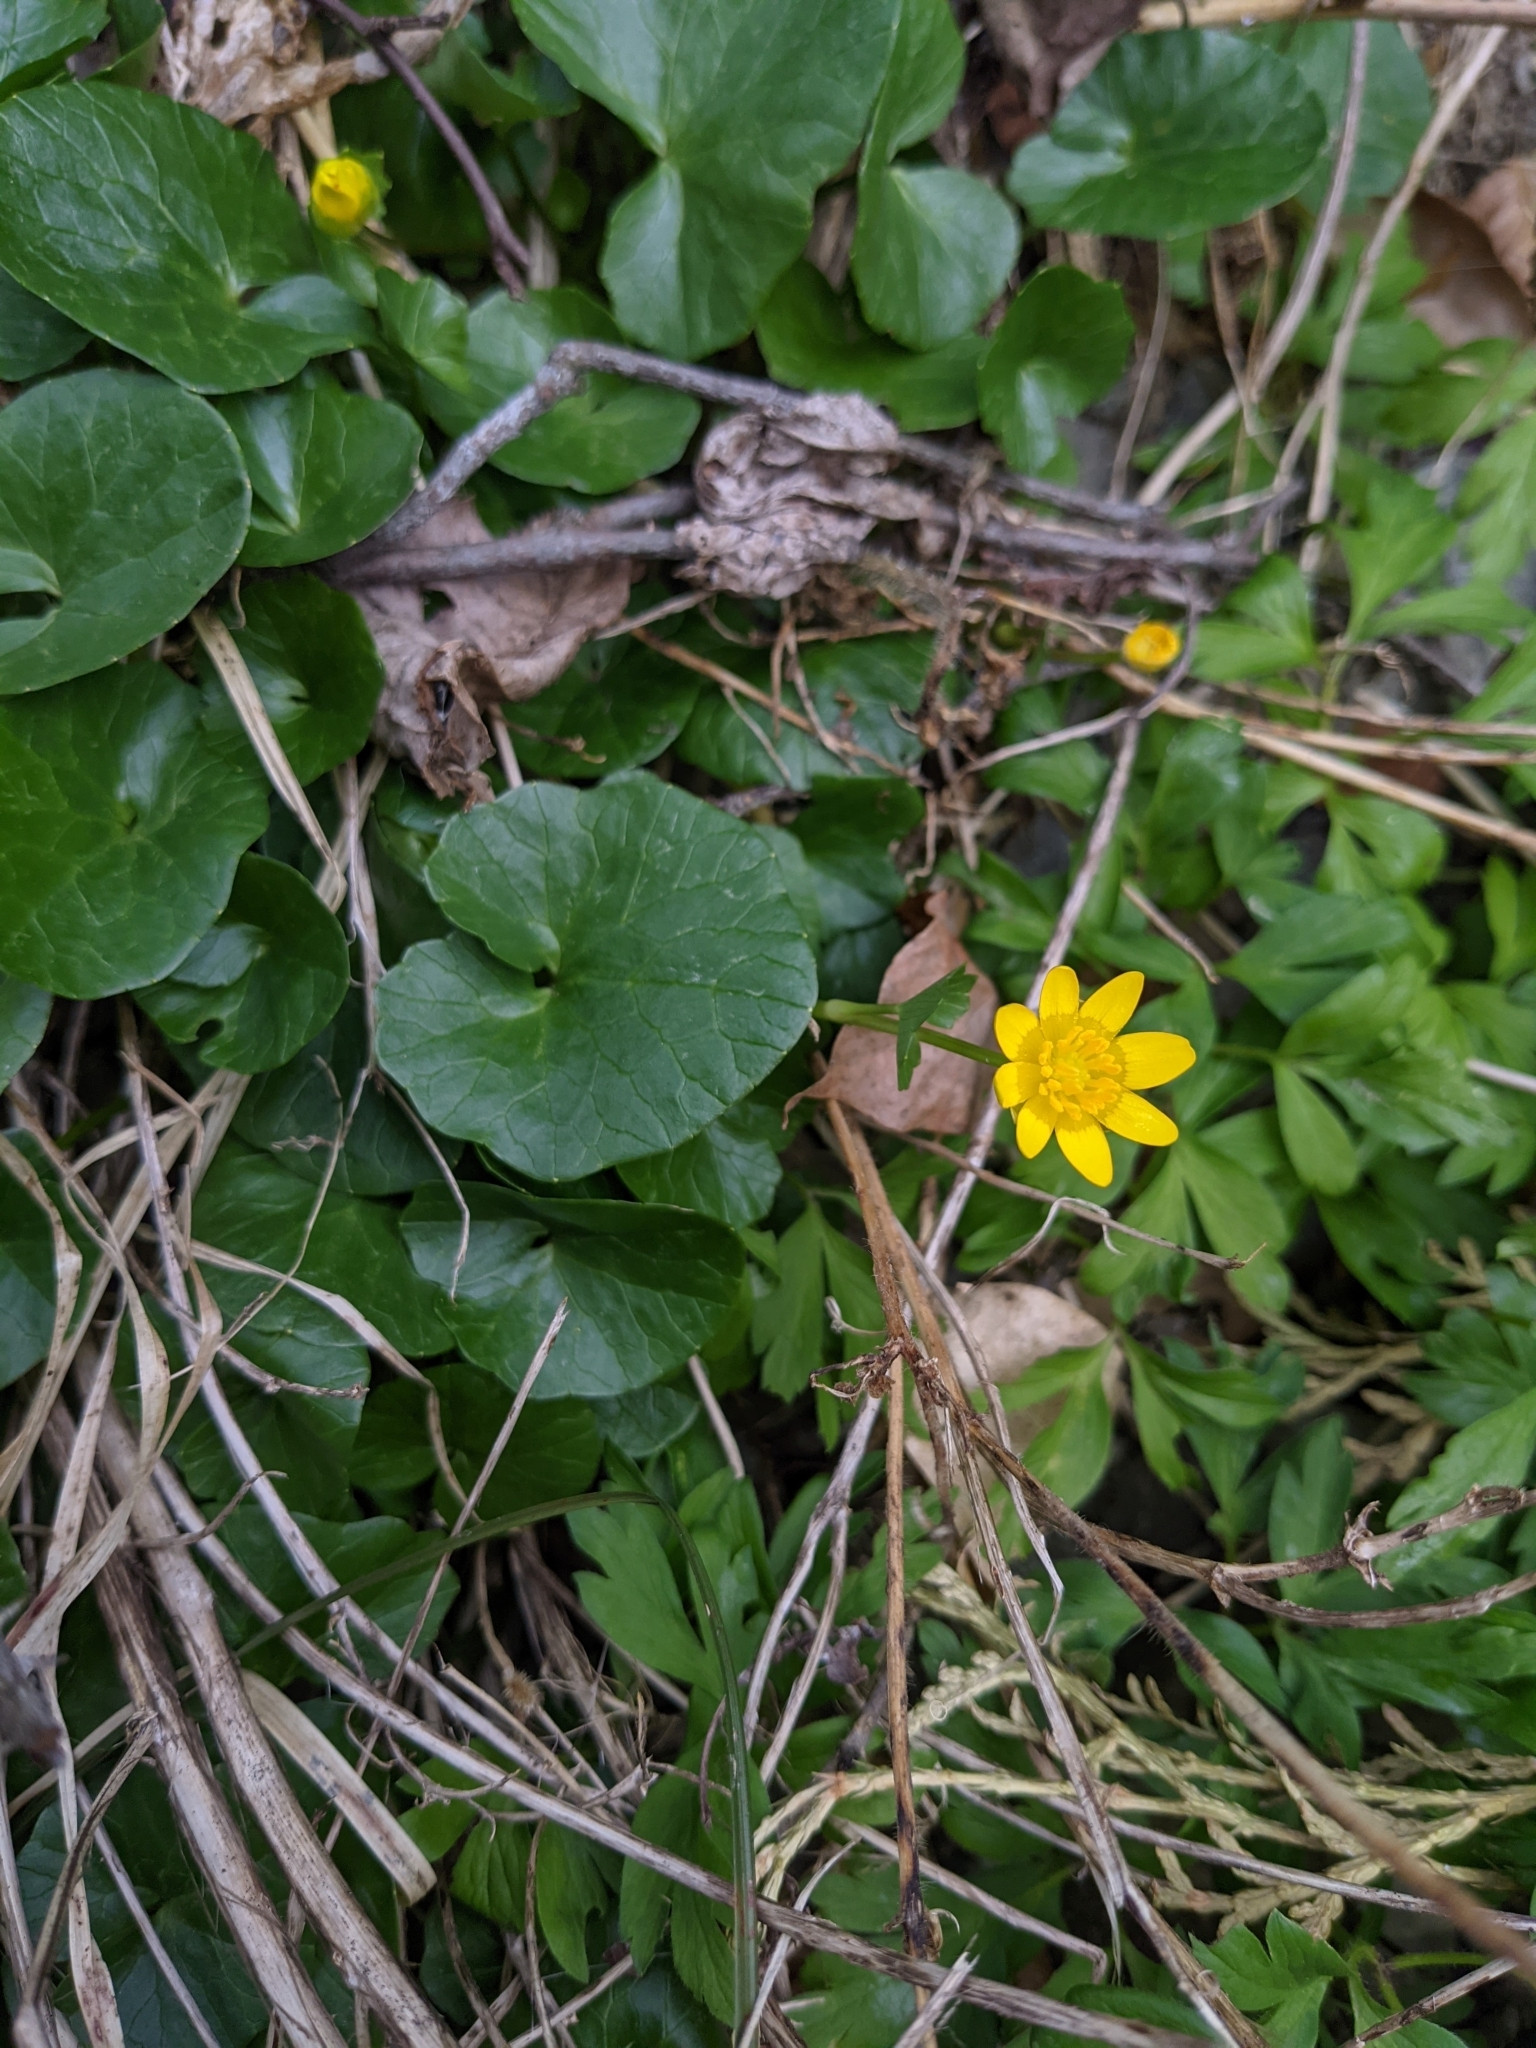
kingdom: Plantae
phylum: Tracheophyta
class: Magnoliopsida
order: Ranunculales
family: Ranunculaceae
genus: Ficaria
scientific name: Ficaria verna
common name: Lesser celandine
